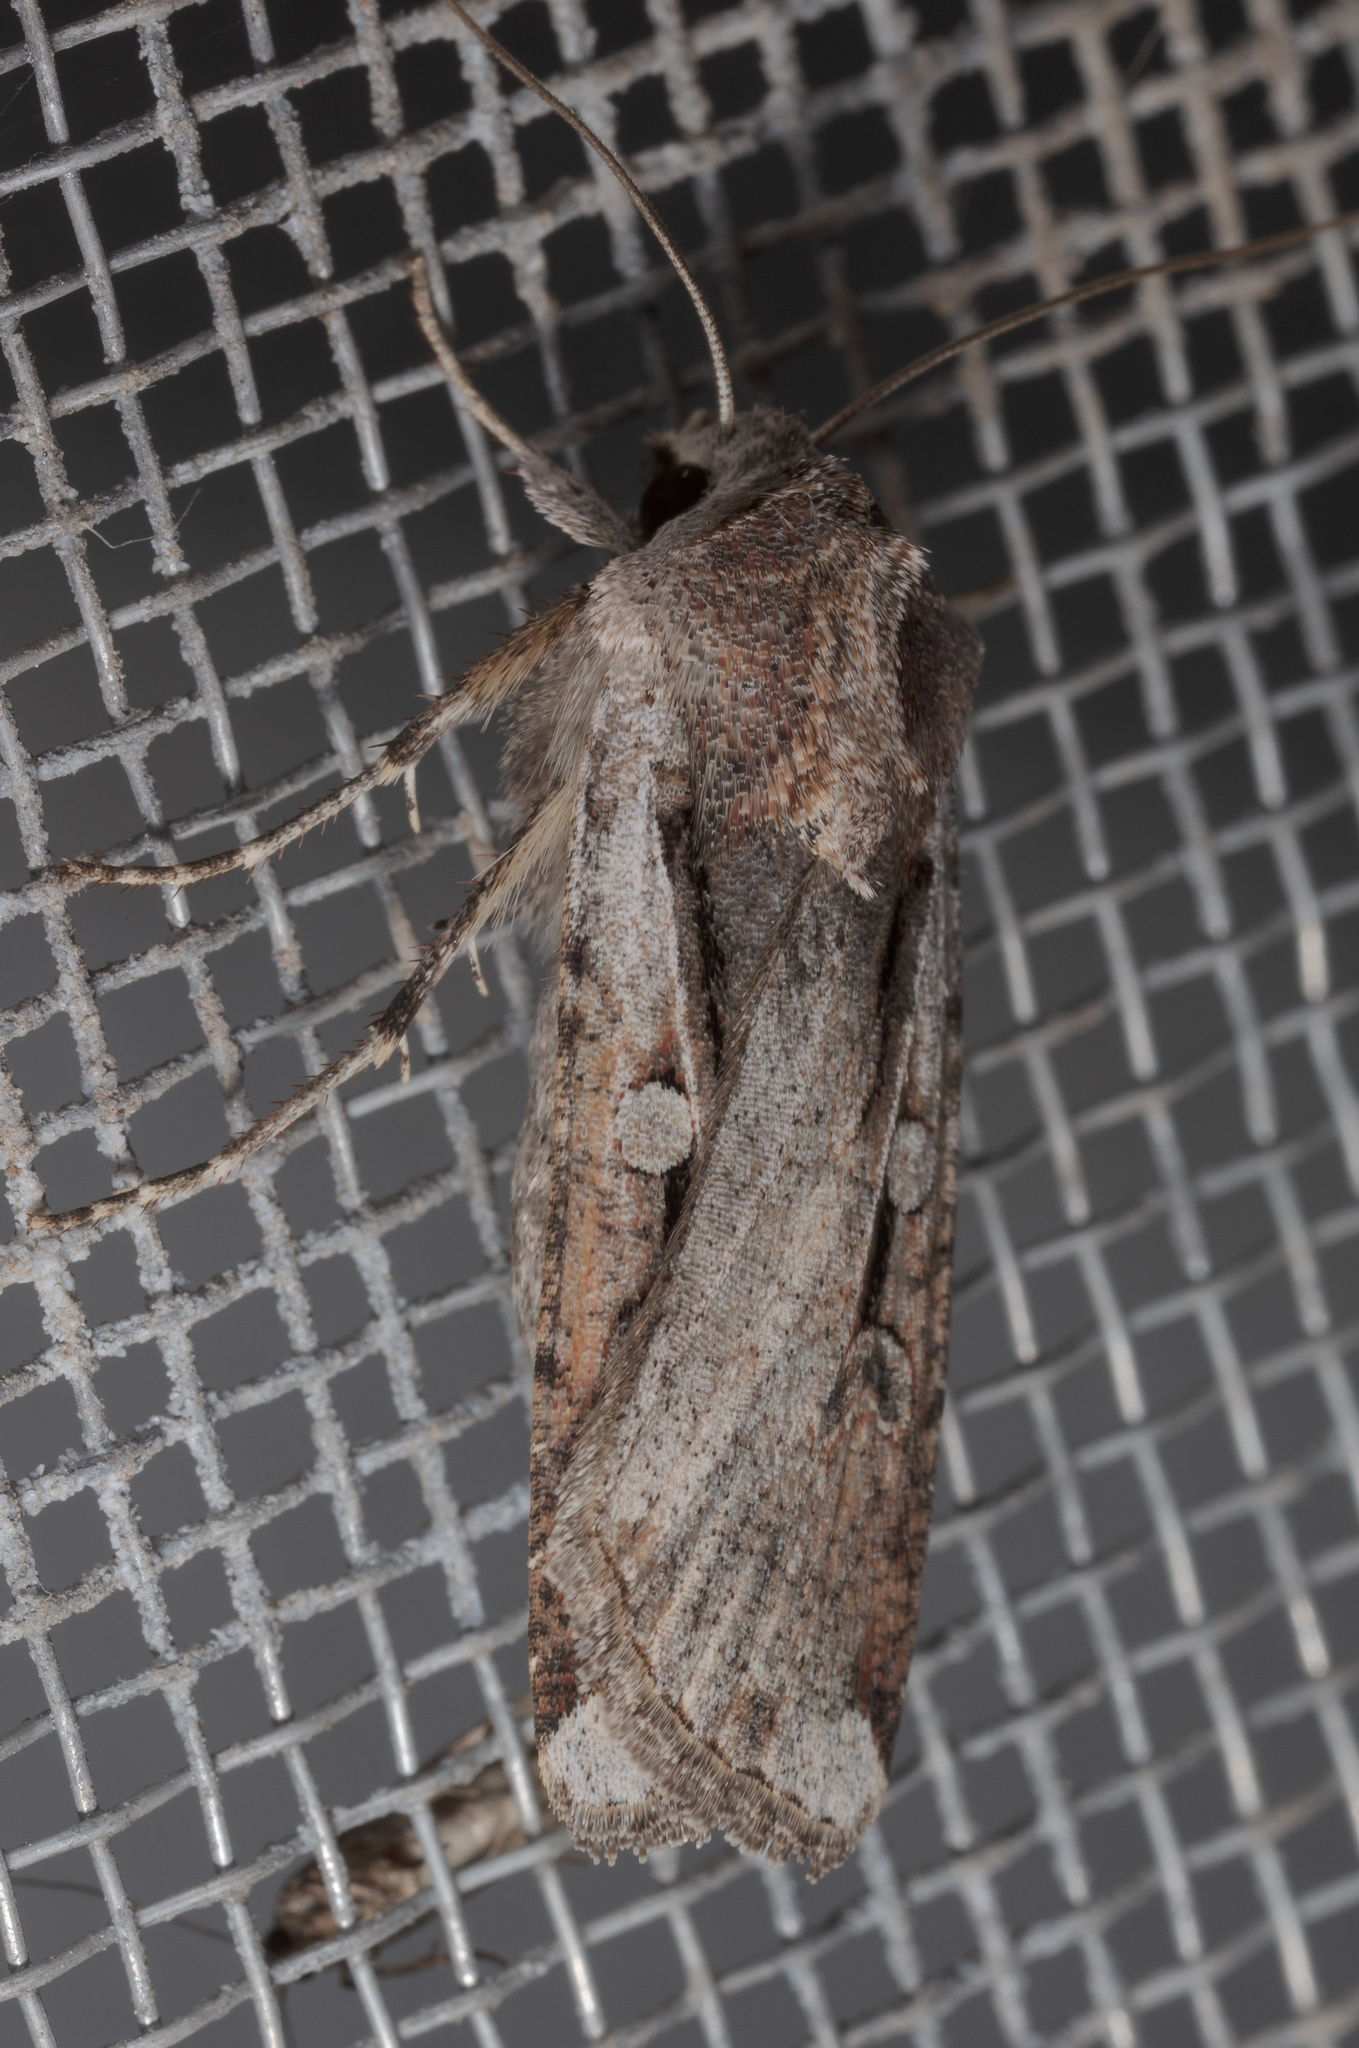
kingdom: Animalia
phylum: Arthropoda
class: Insecta
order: Lepidoptera
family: Noctuidae
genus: Hemieuxoa
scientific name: Hemieuxoa rudens
